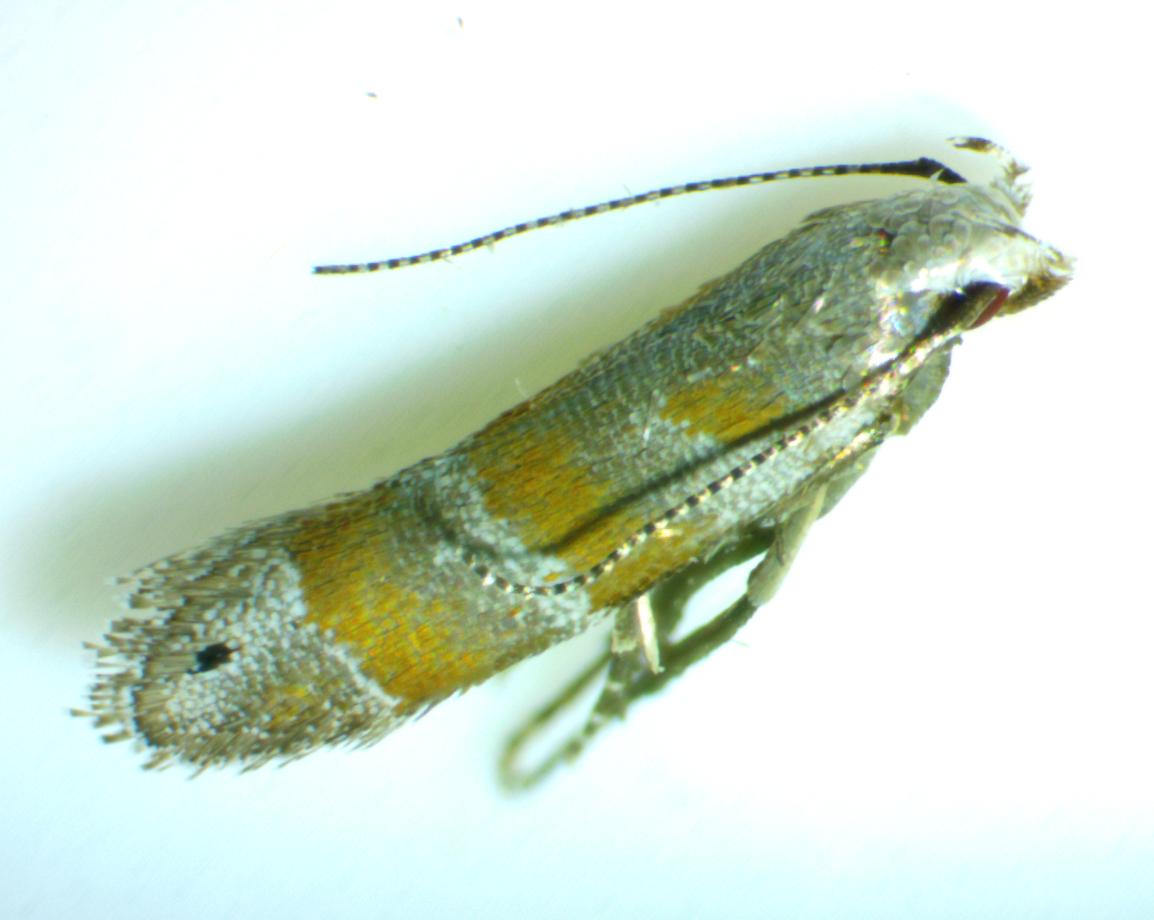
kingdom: Animalia
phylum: Arthropoda
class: Insecta
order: Lepidoptera
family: Gelechiidae
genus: Battaristis
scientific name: Battaristis vittella
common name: Orange stripe-backed moth
